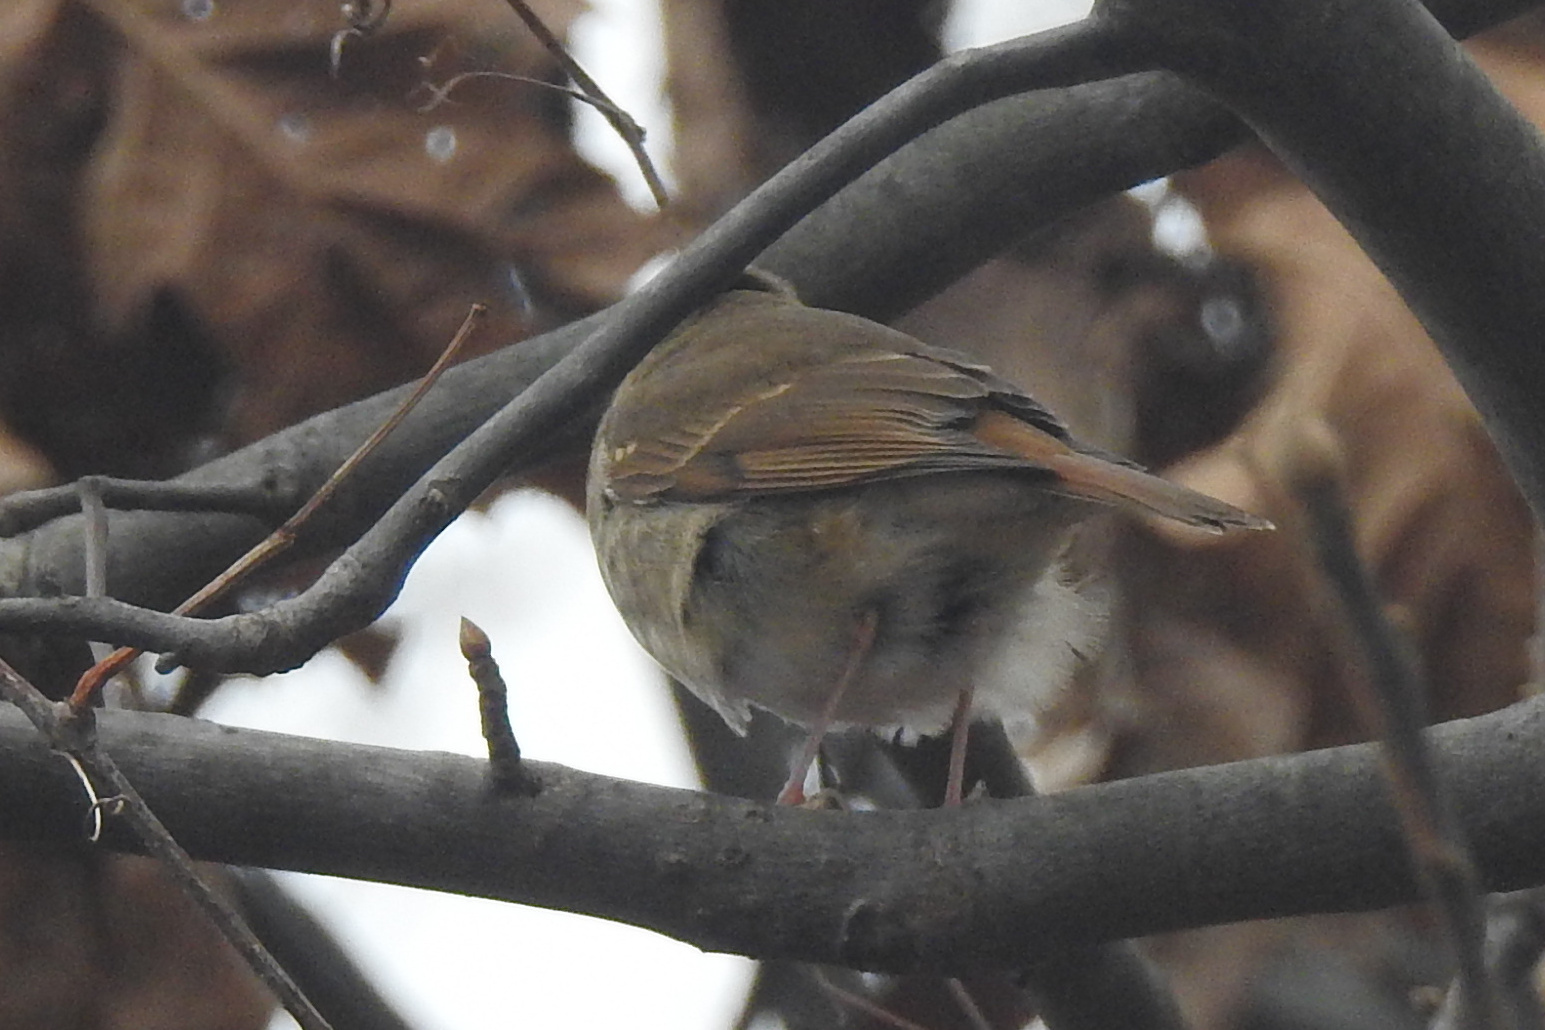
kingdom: Animalia
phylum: Chordata
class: Aves
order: Passeriformes
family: Turdidae
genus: Catharus
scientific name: Catharus guttatus
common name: Hermit thrush
